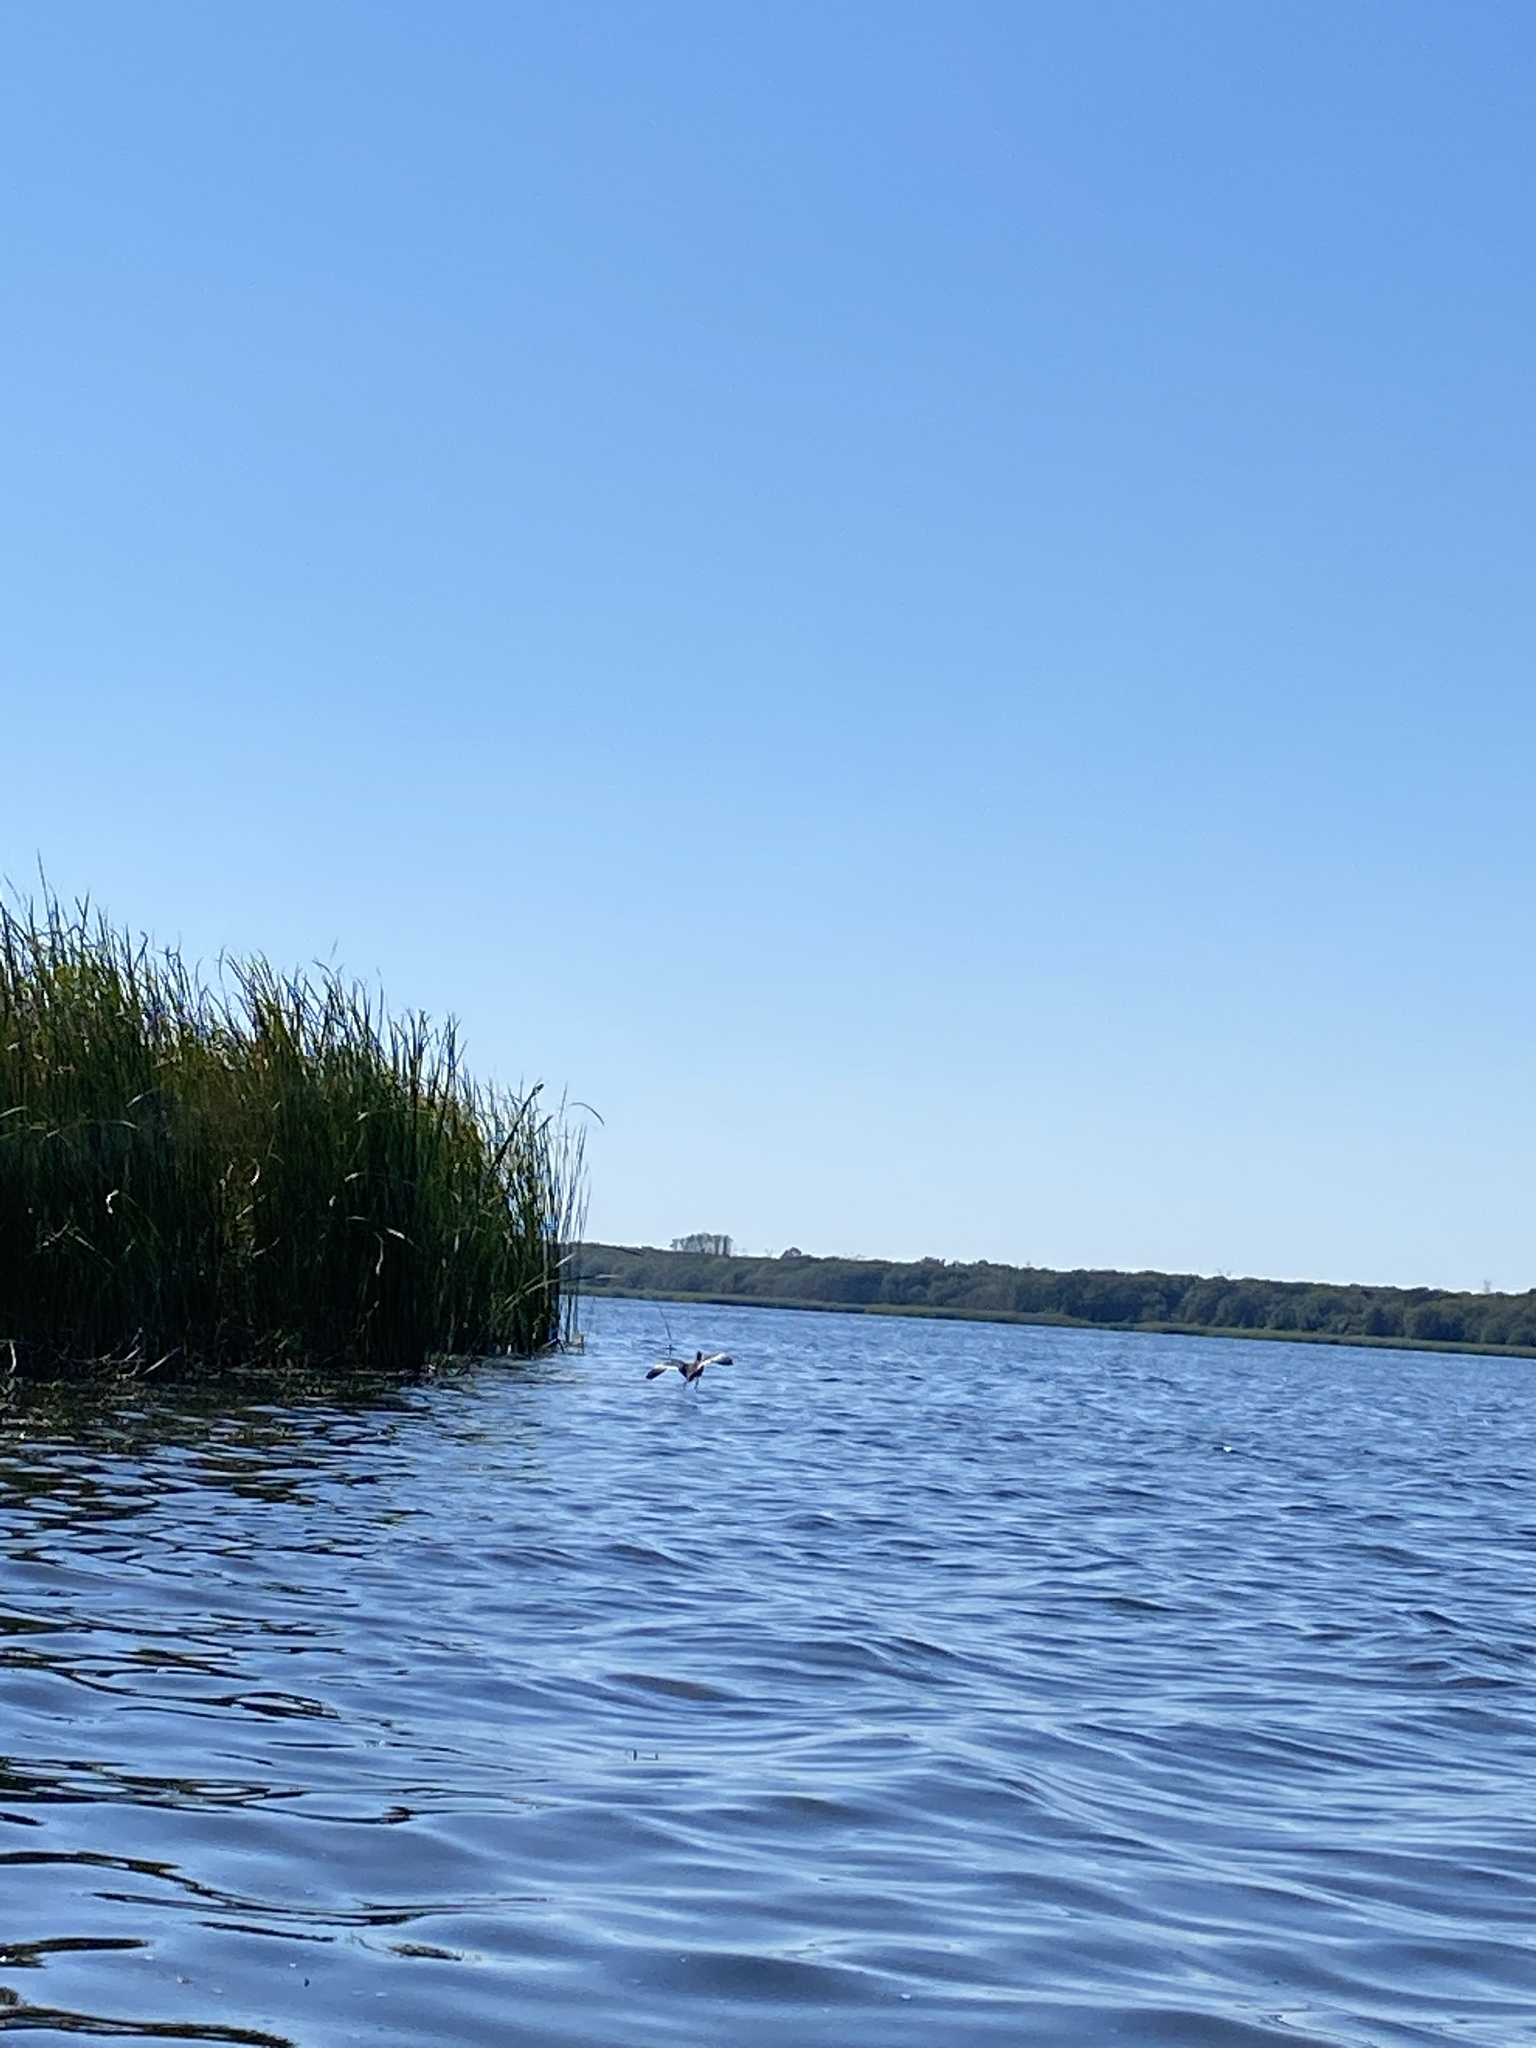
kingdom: Animalia
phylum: Chordata
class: Aves
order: Gruiformes
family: Rallidae
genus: Fulica
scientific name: Fulica americana
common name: American coot
